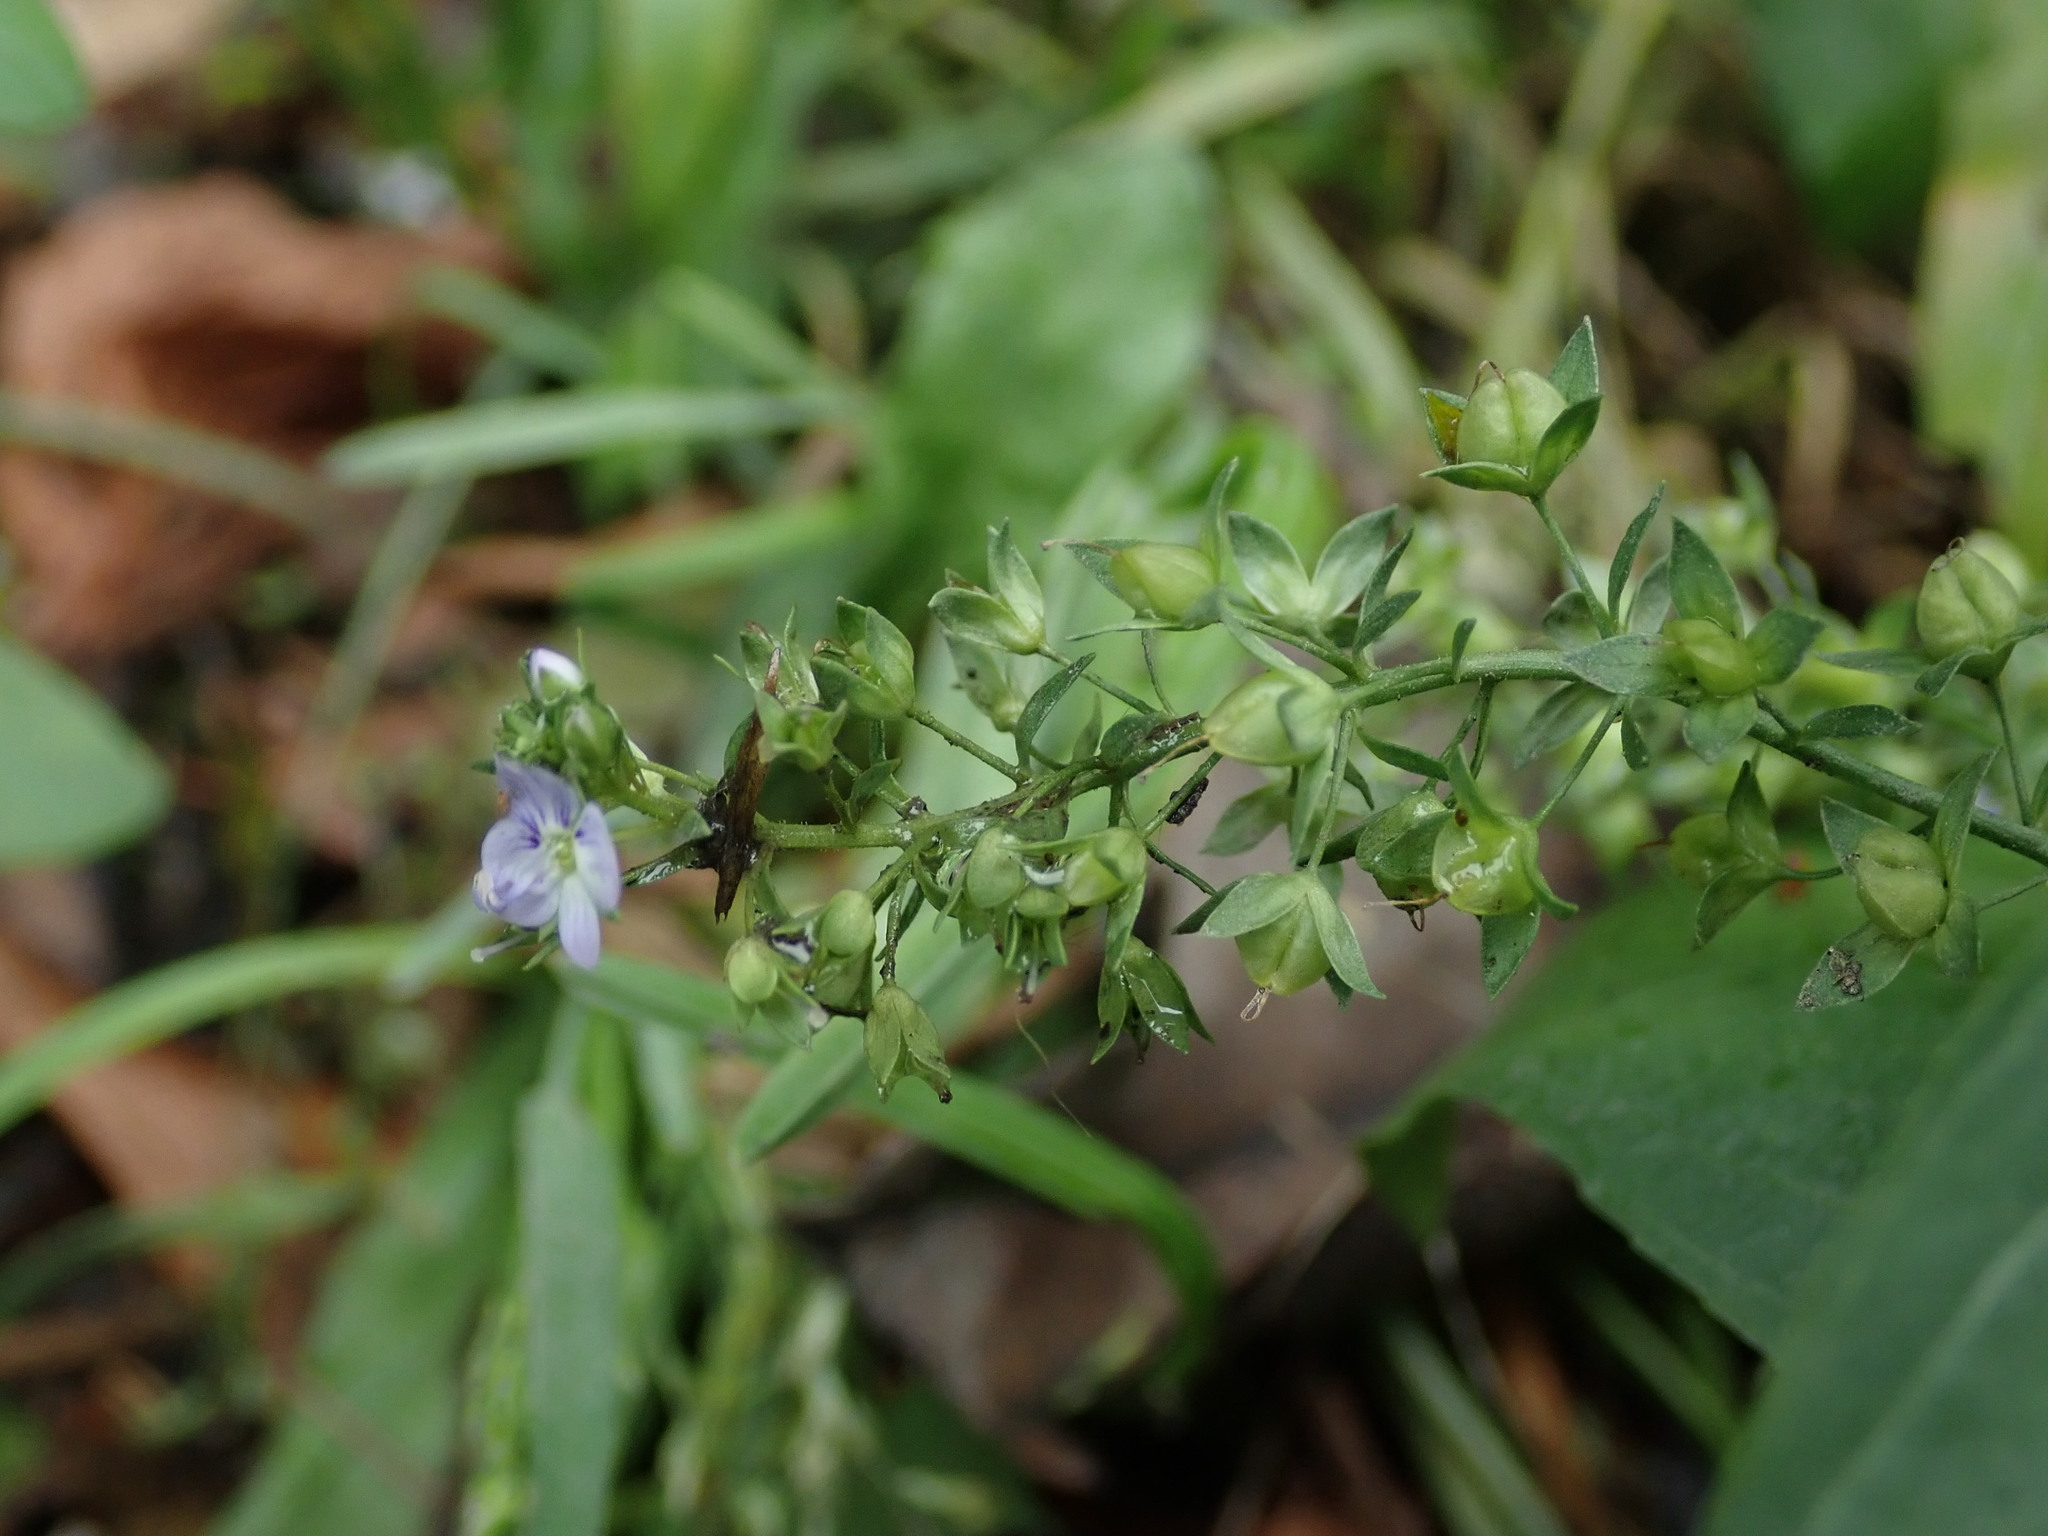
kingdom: Plantae
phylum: Tracheophyta
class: Magnoliopsida
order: Lamiales
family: Plantaginaceae
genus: Veronica
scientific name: Veronica anagallis-aquatica
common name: Water speedwell
